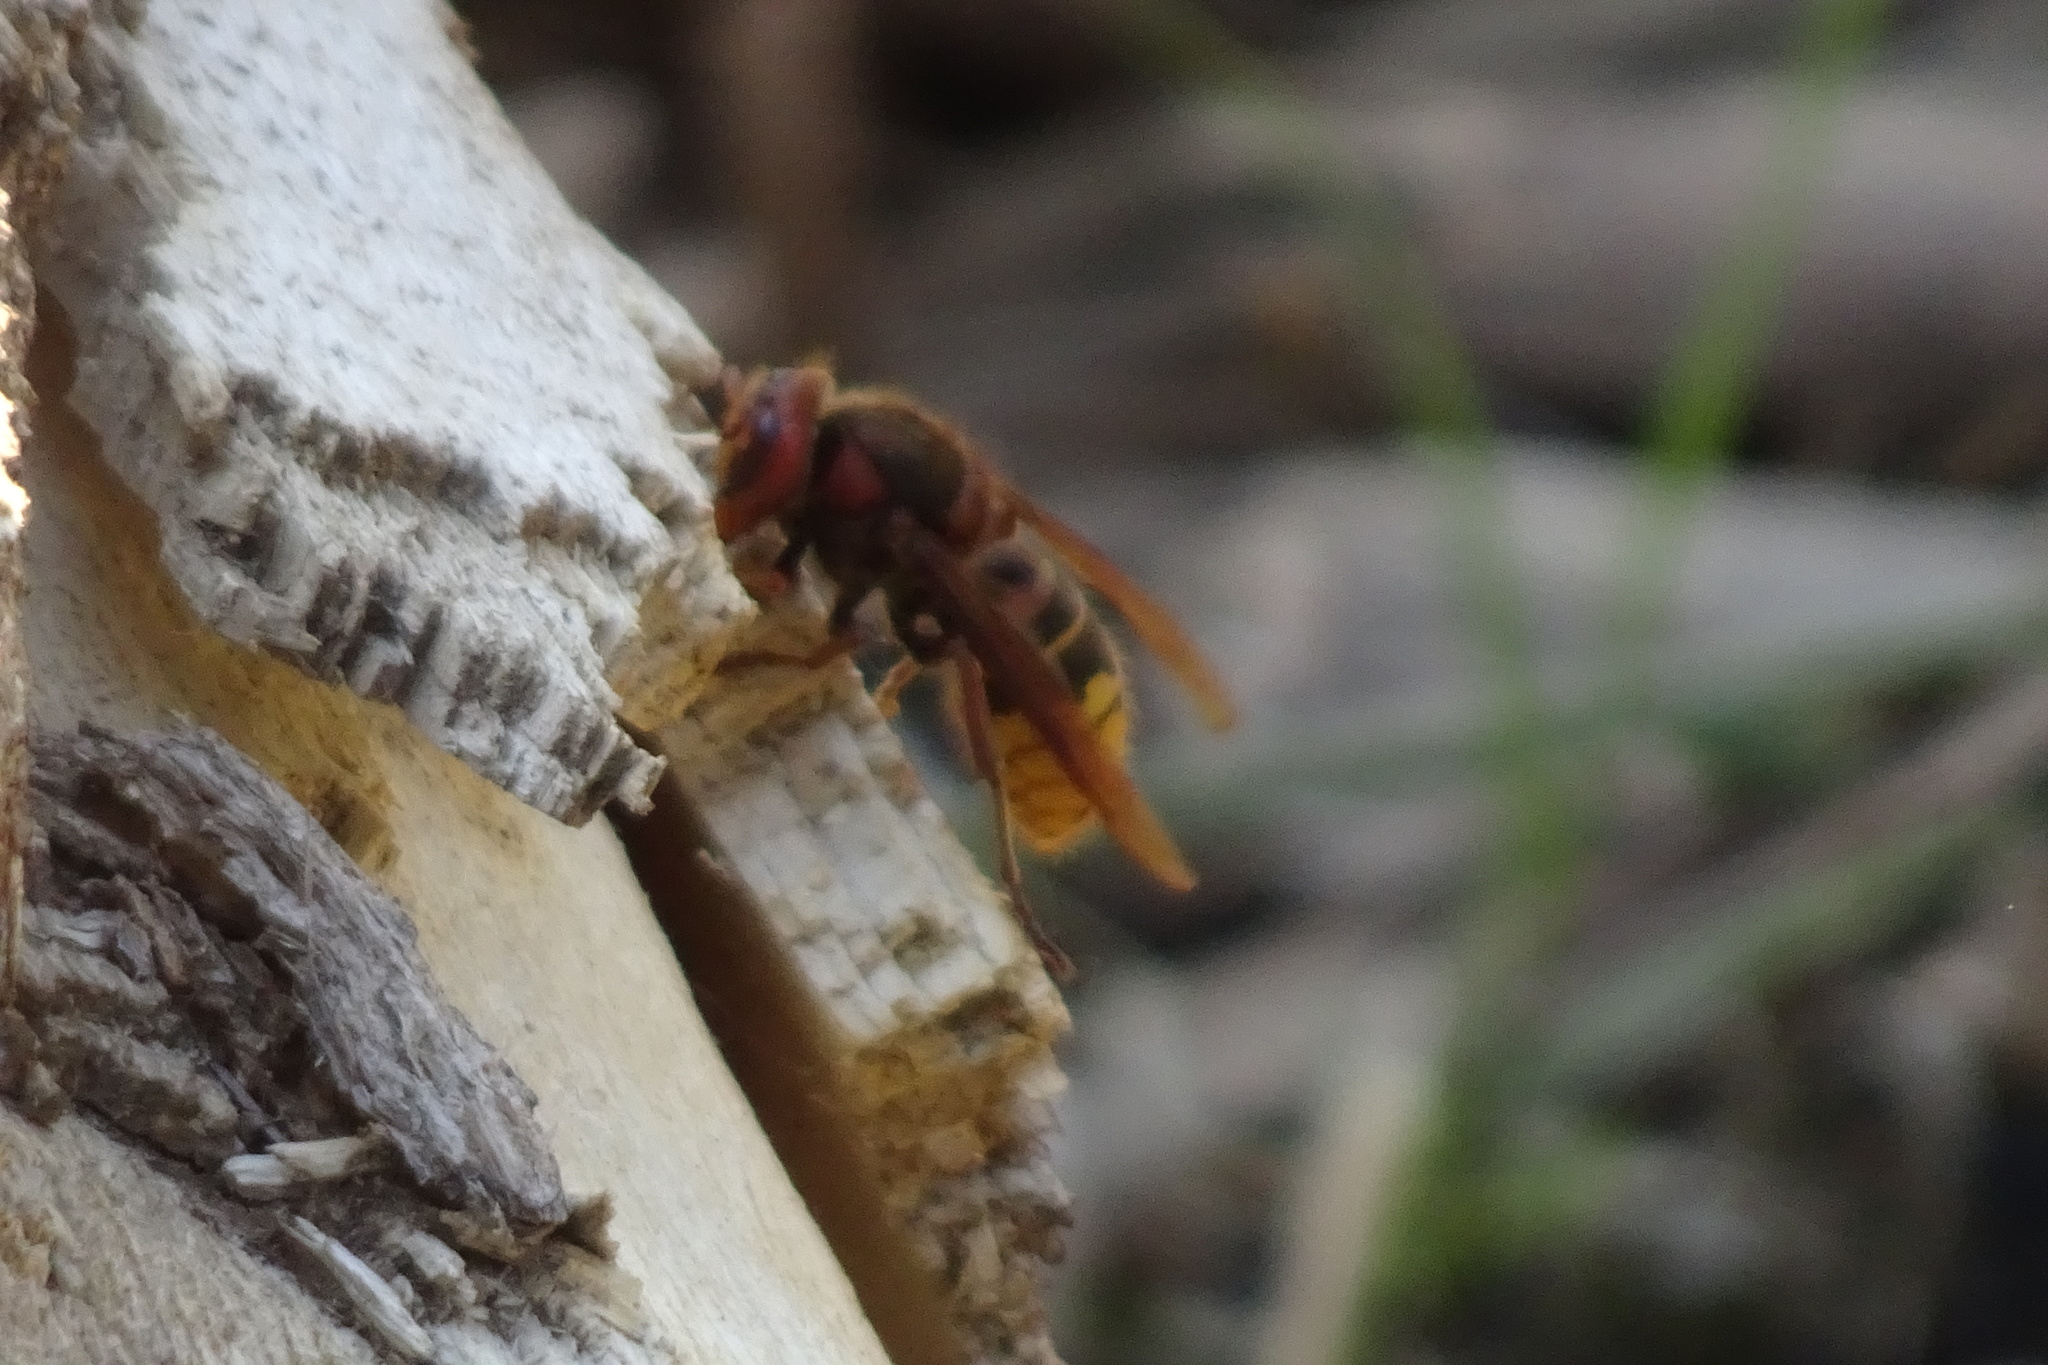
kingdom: Animalia
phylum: Arthropoda
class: Insecta
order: Hymenoptera
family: Vespidae
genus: Vespa
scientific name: Vespa crabro
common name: Hornet
